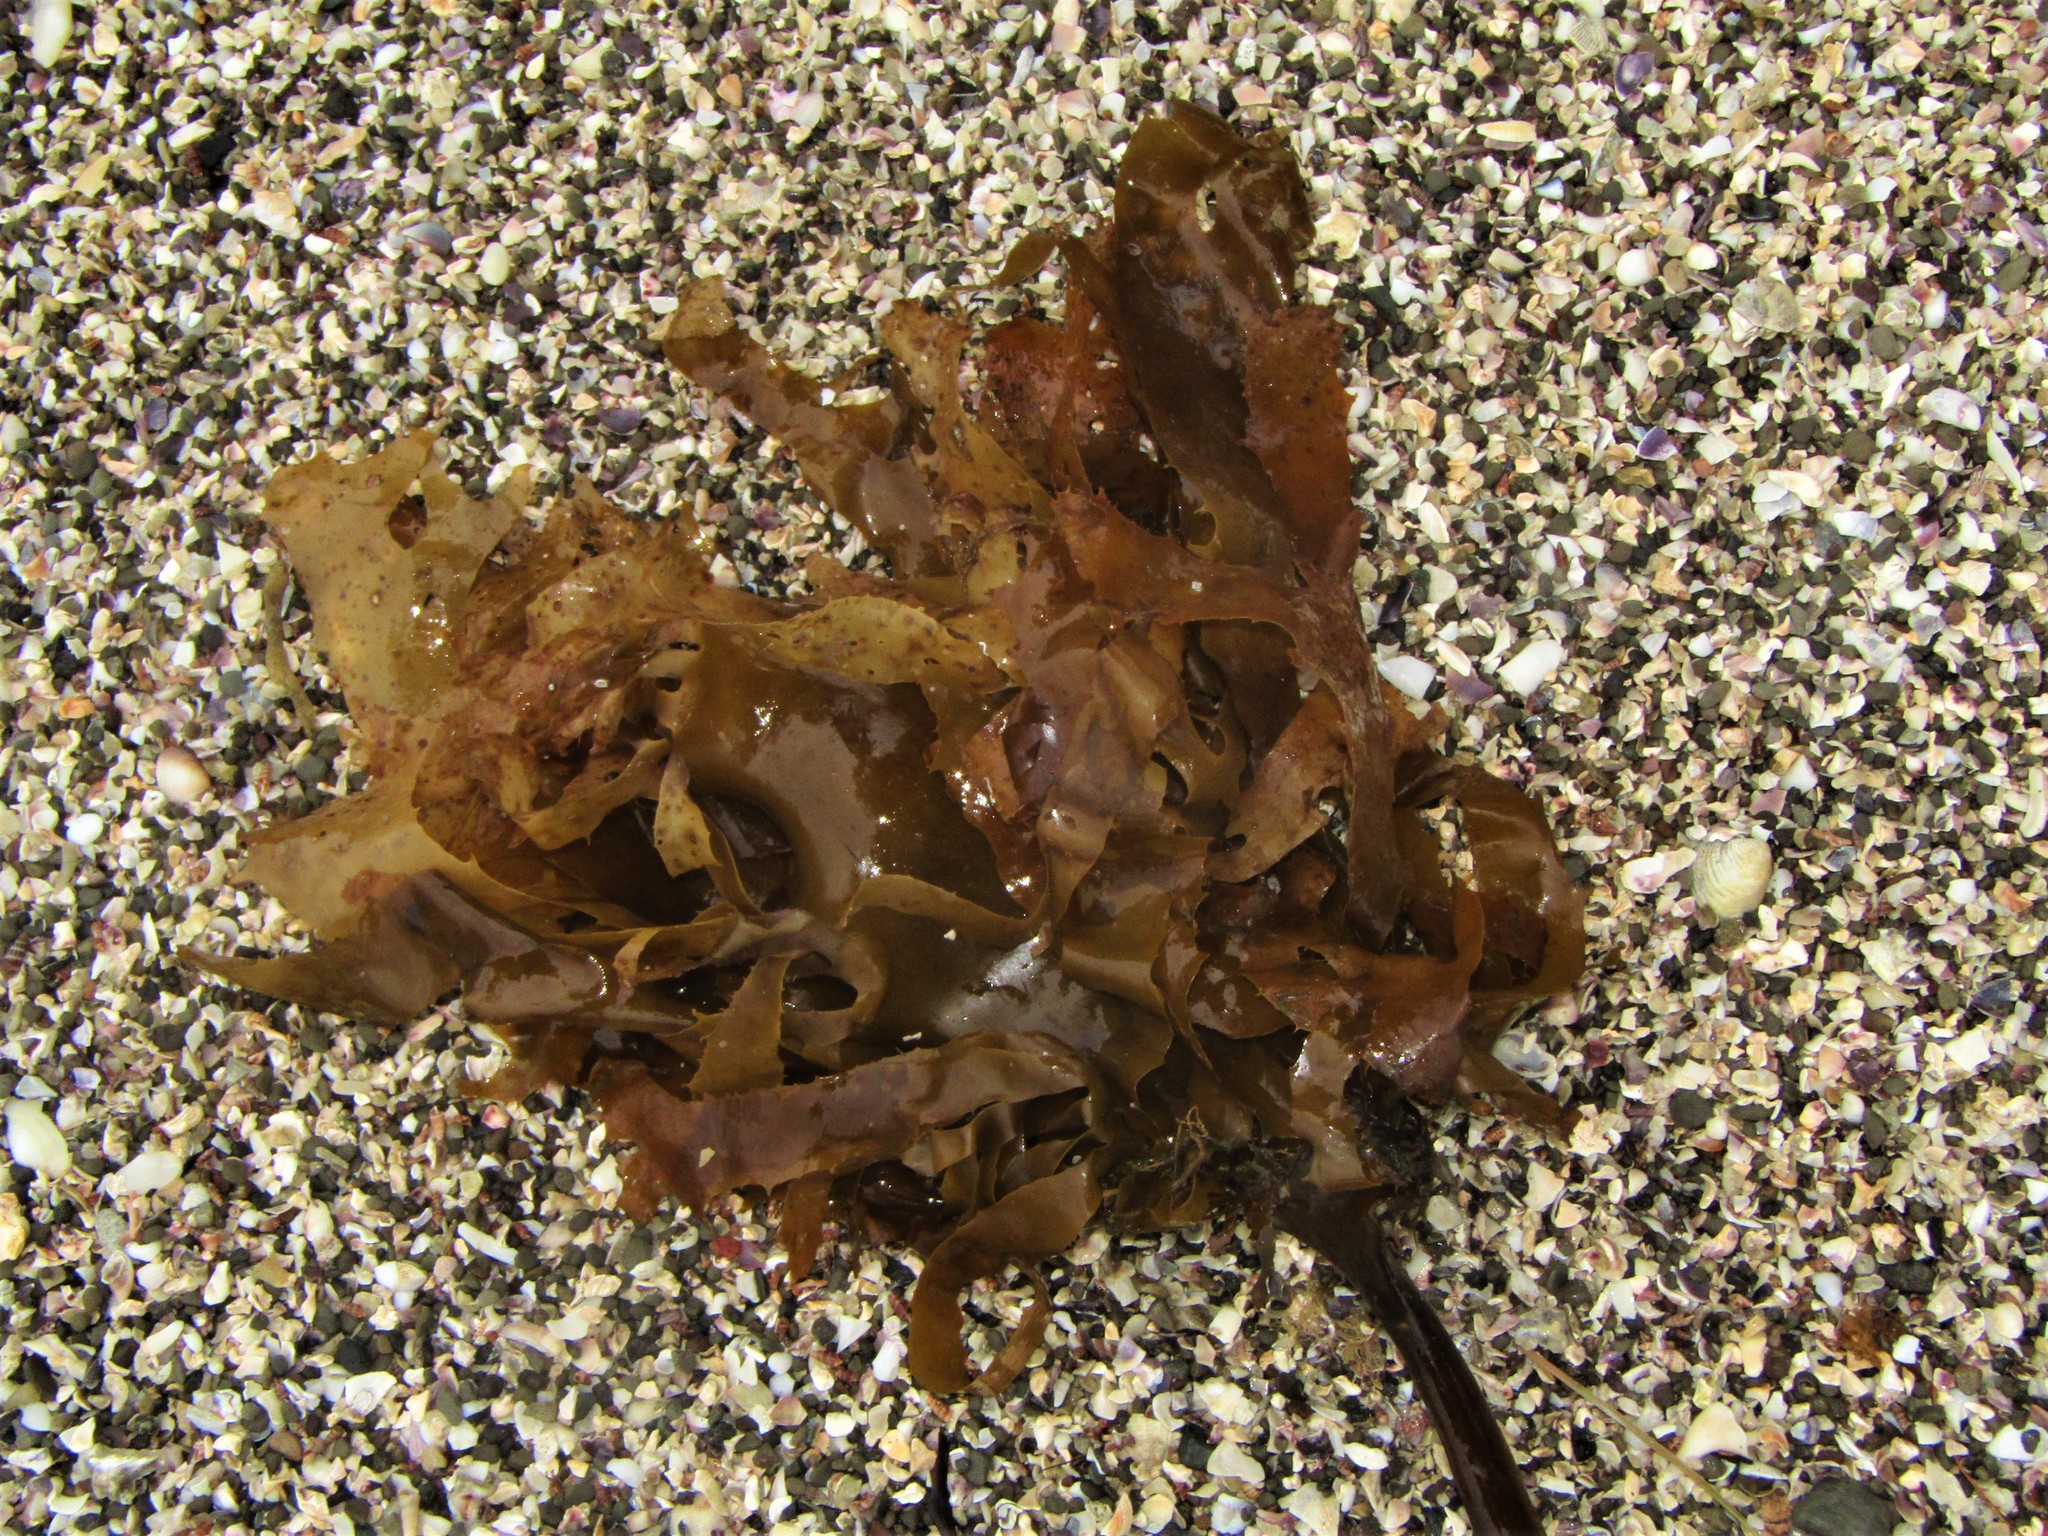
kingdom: Chromista
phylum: Ochrophyta
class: Phaeophyceae
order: Laminariales
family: Lessoniaceae
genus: Ecklonia
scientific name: Ecklonia radiata
